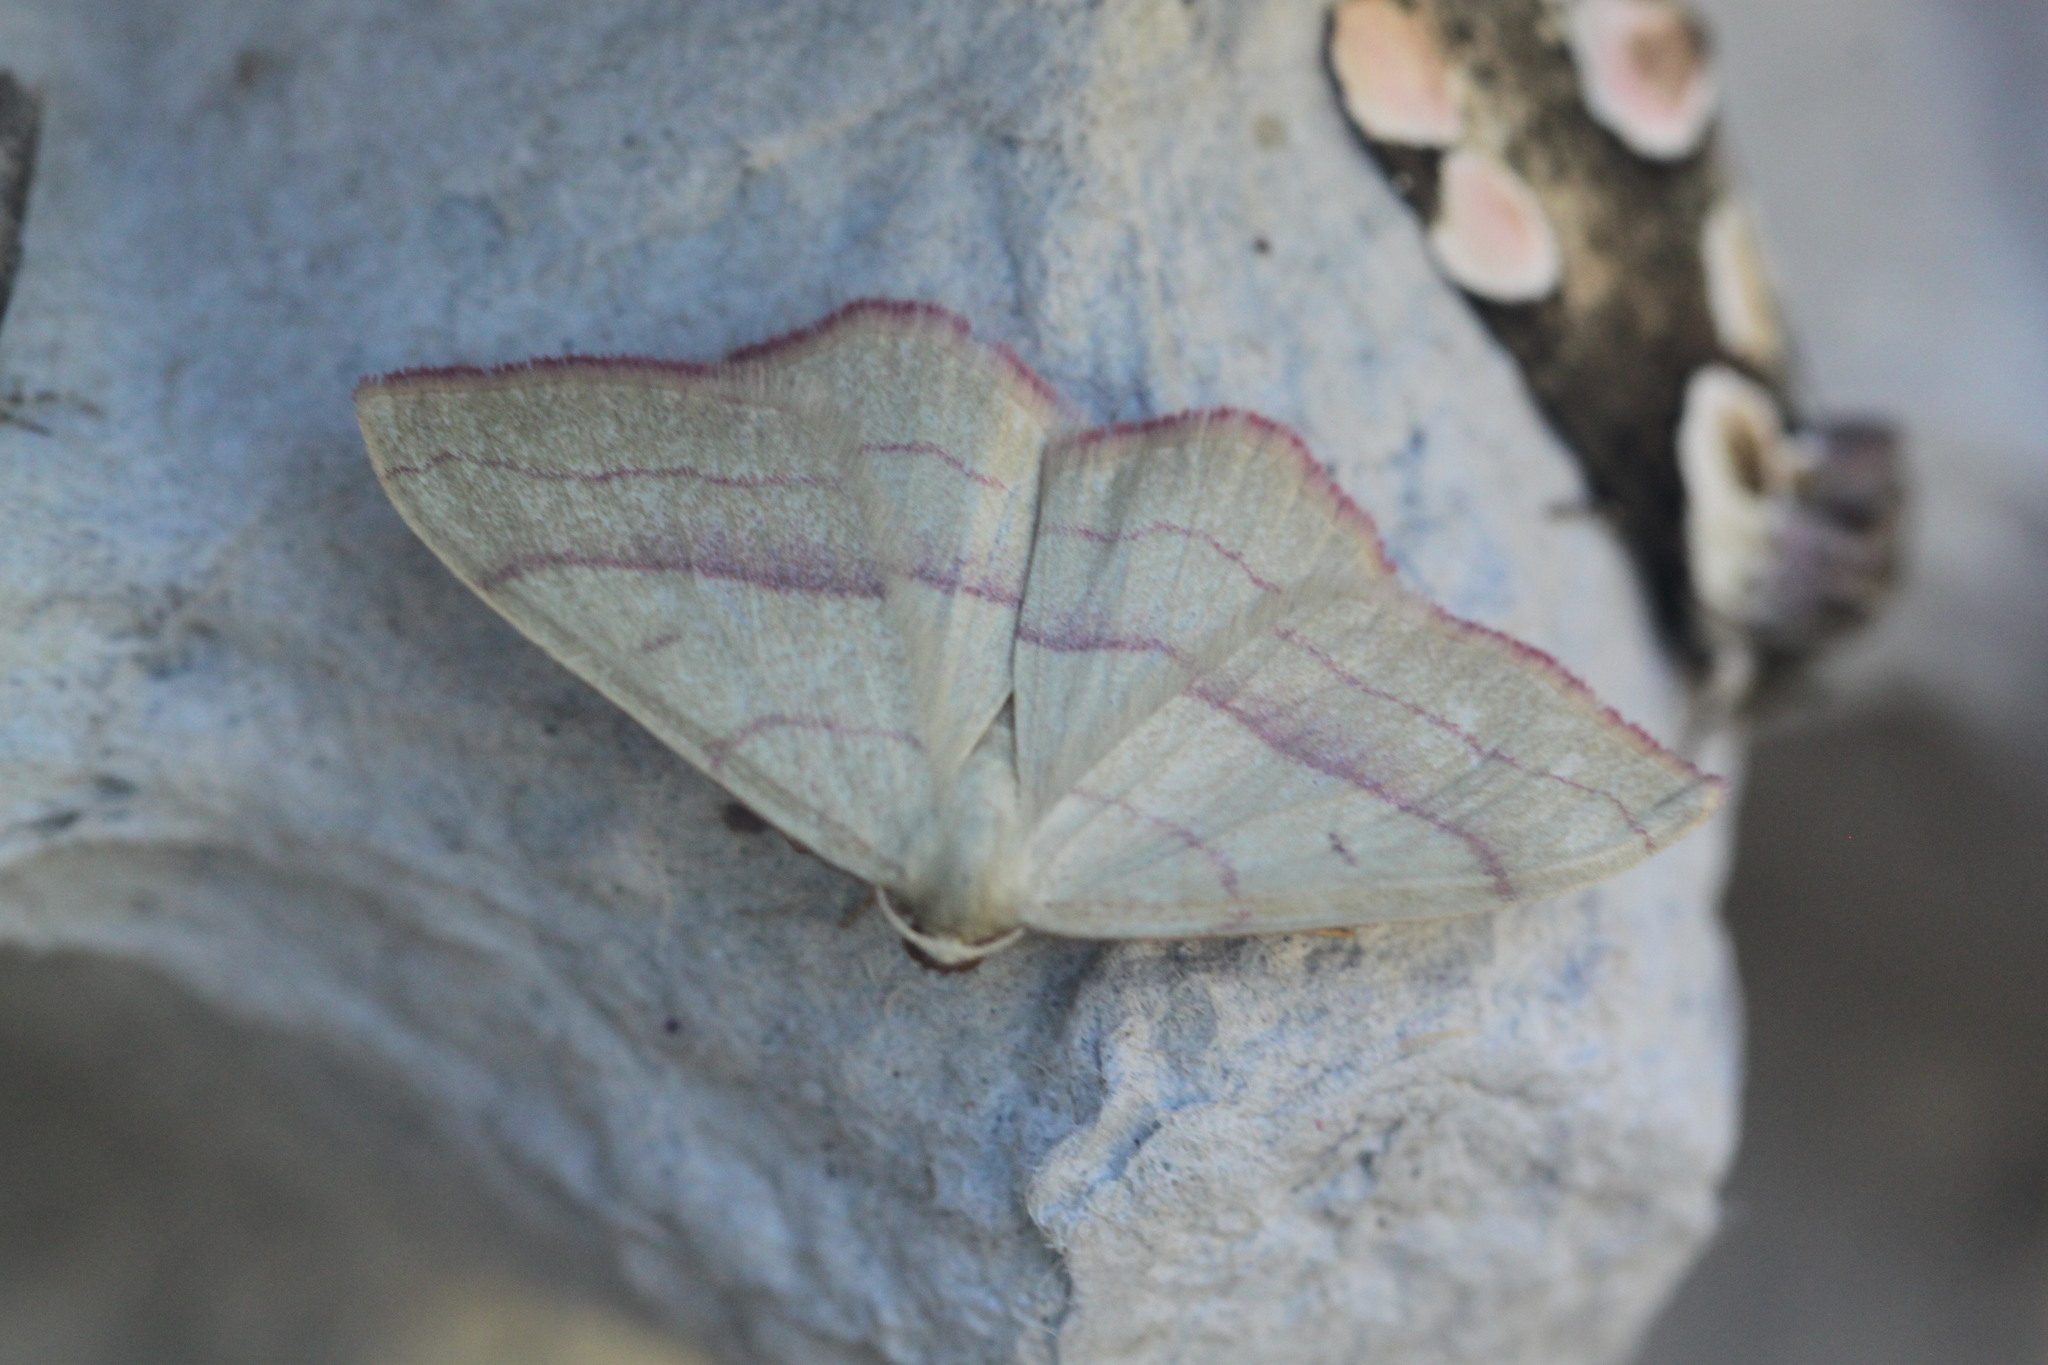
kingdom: Animalia
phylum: Arthropoda
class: Insecta
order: Lepidoptera
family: Geometridae
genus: Rhodostrophia
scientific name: Rhodostrophia vibicaria
